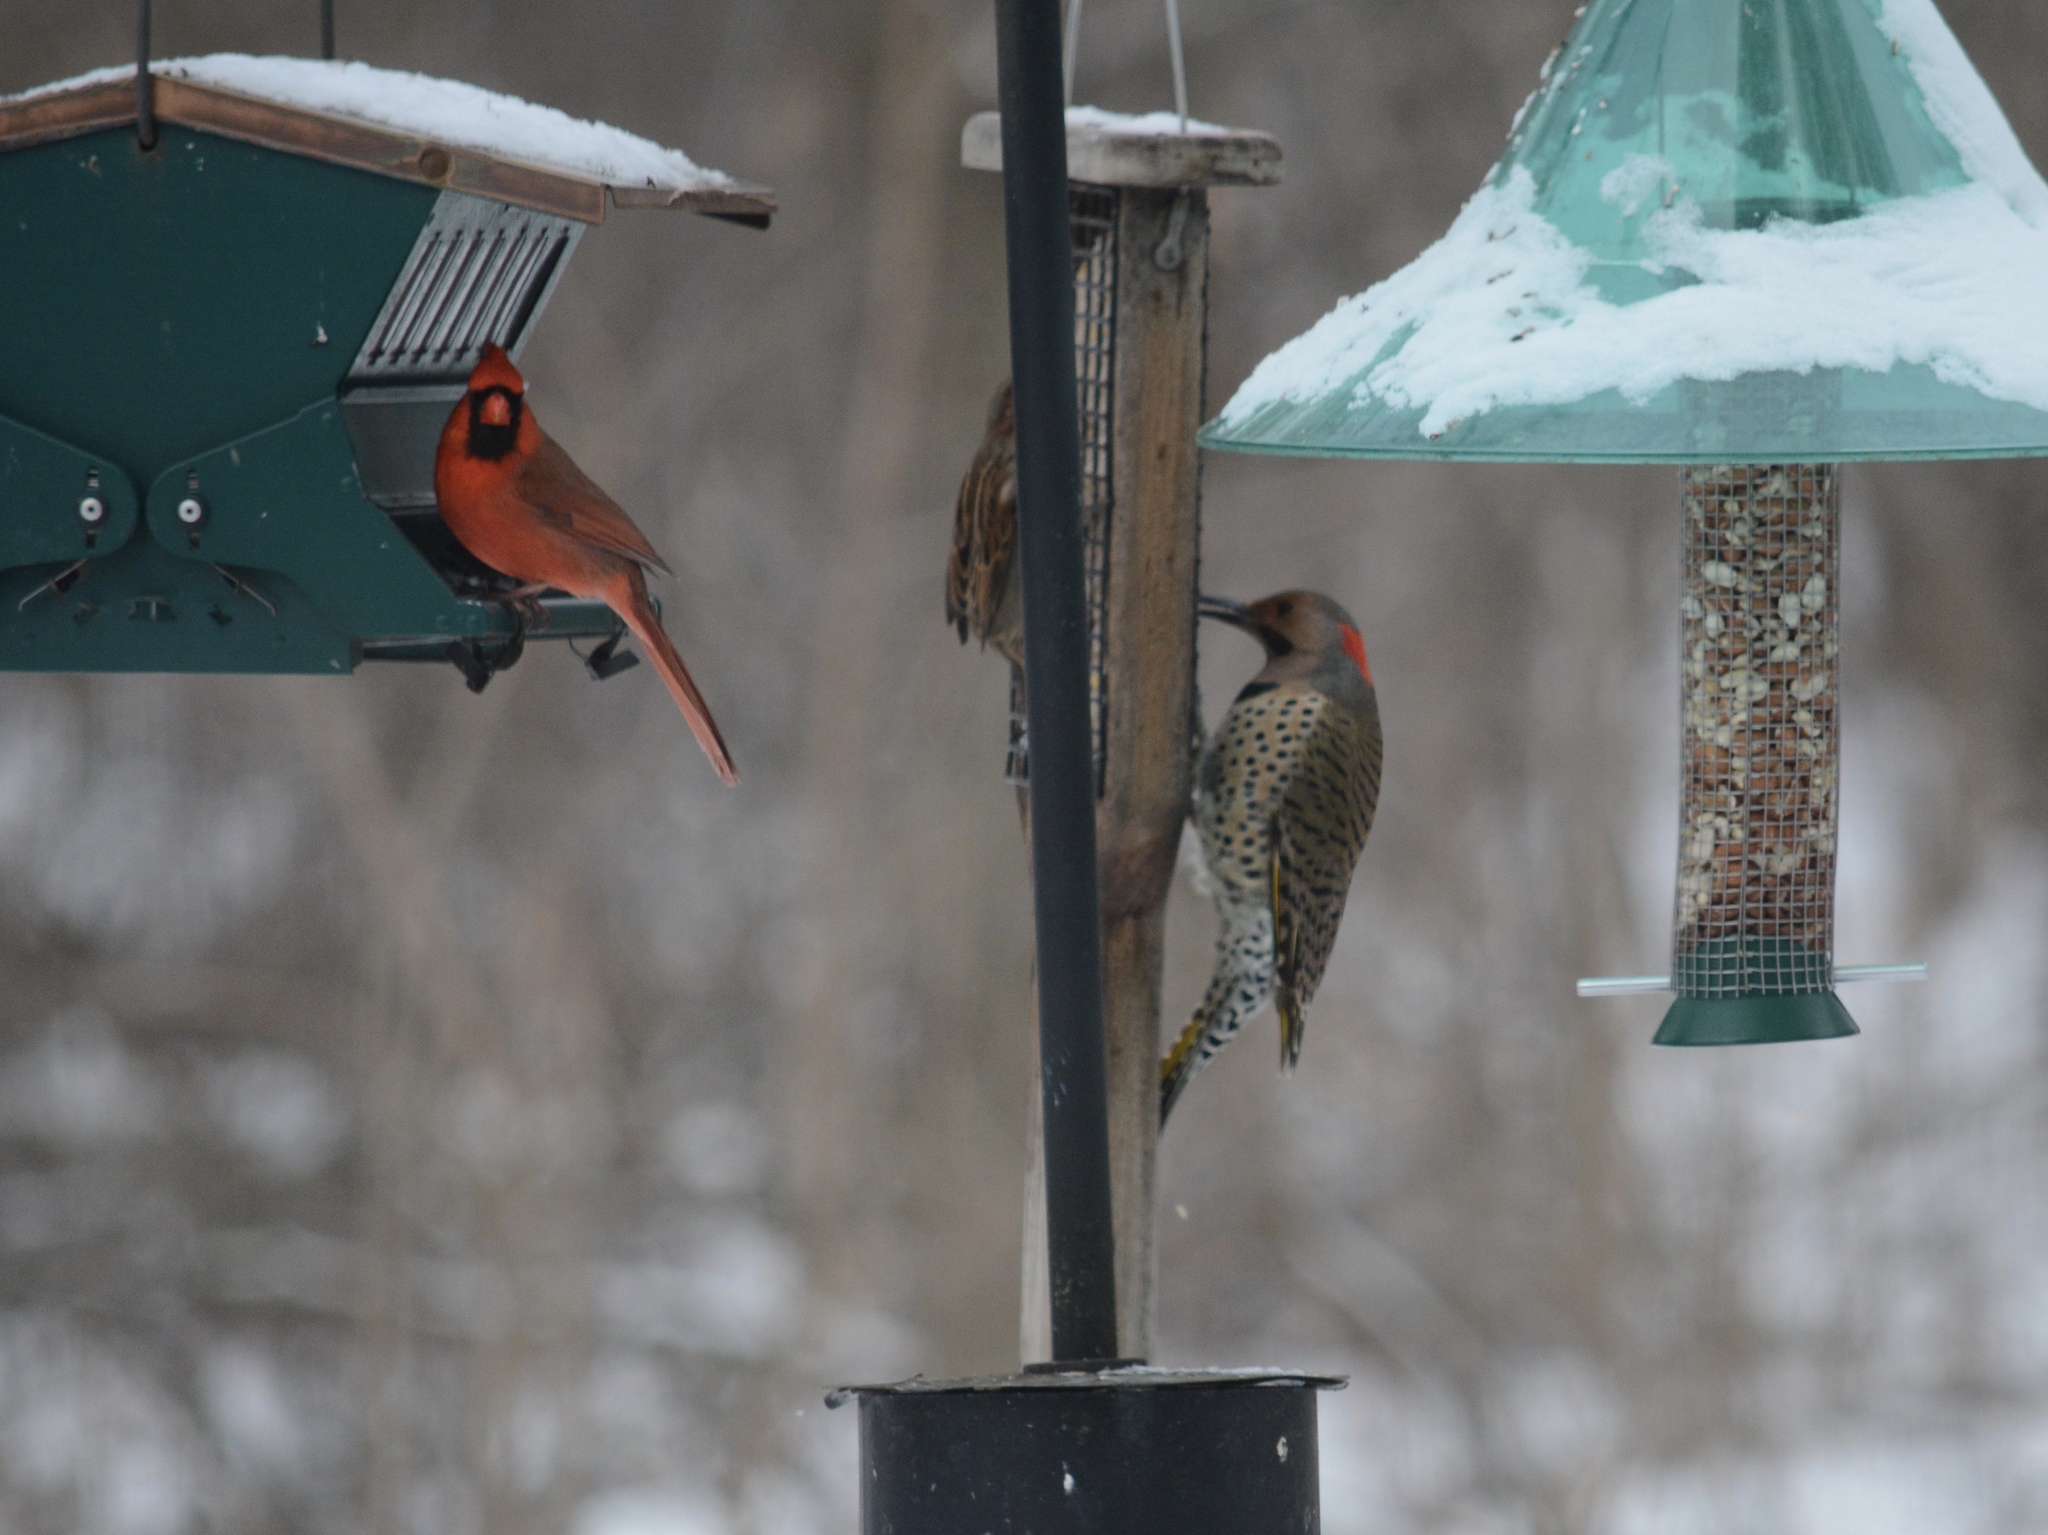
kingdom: Animalia
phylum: Chordata
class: Aves
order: Piciformes
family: Picidae
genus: Colaptes
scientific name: Colaptes auratus
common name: Northern flicker
